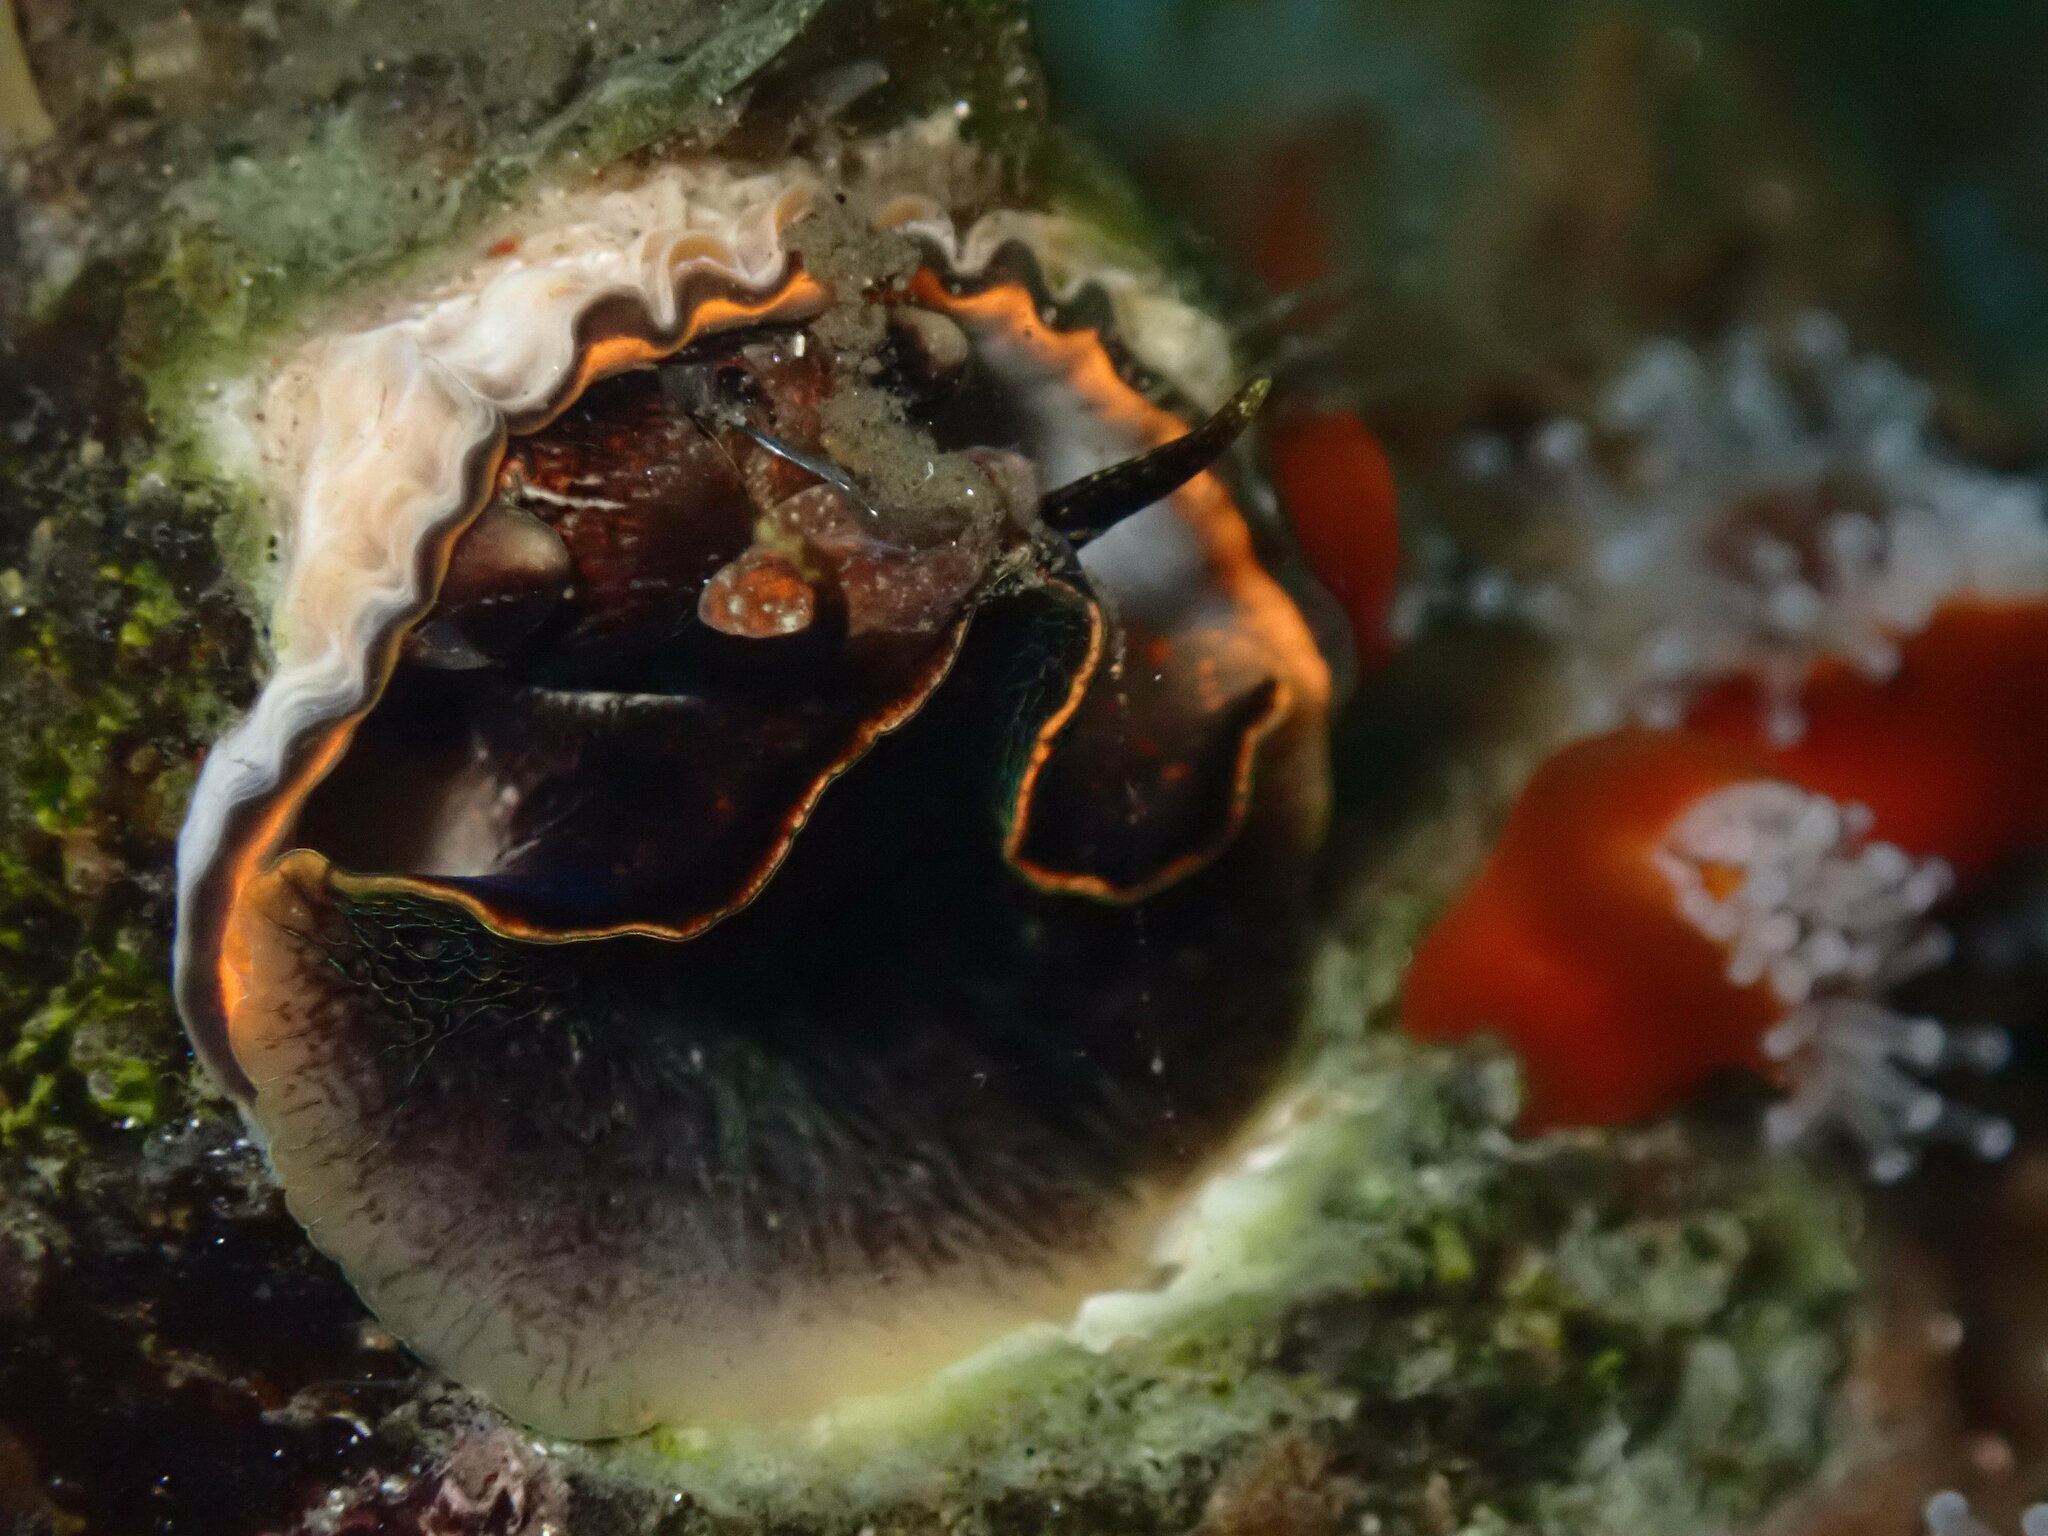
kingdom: Animalia
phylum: Mollusca
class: Gastropoda
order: Littorinimorpha
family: Vermetidae
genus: Thylacodes
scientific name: Thylacodes squamigerus
